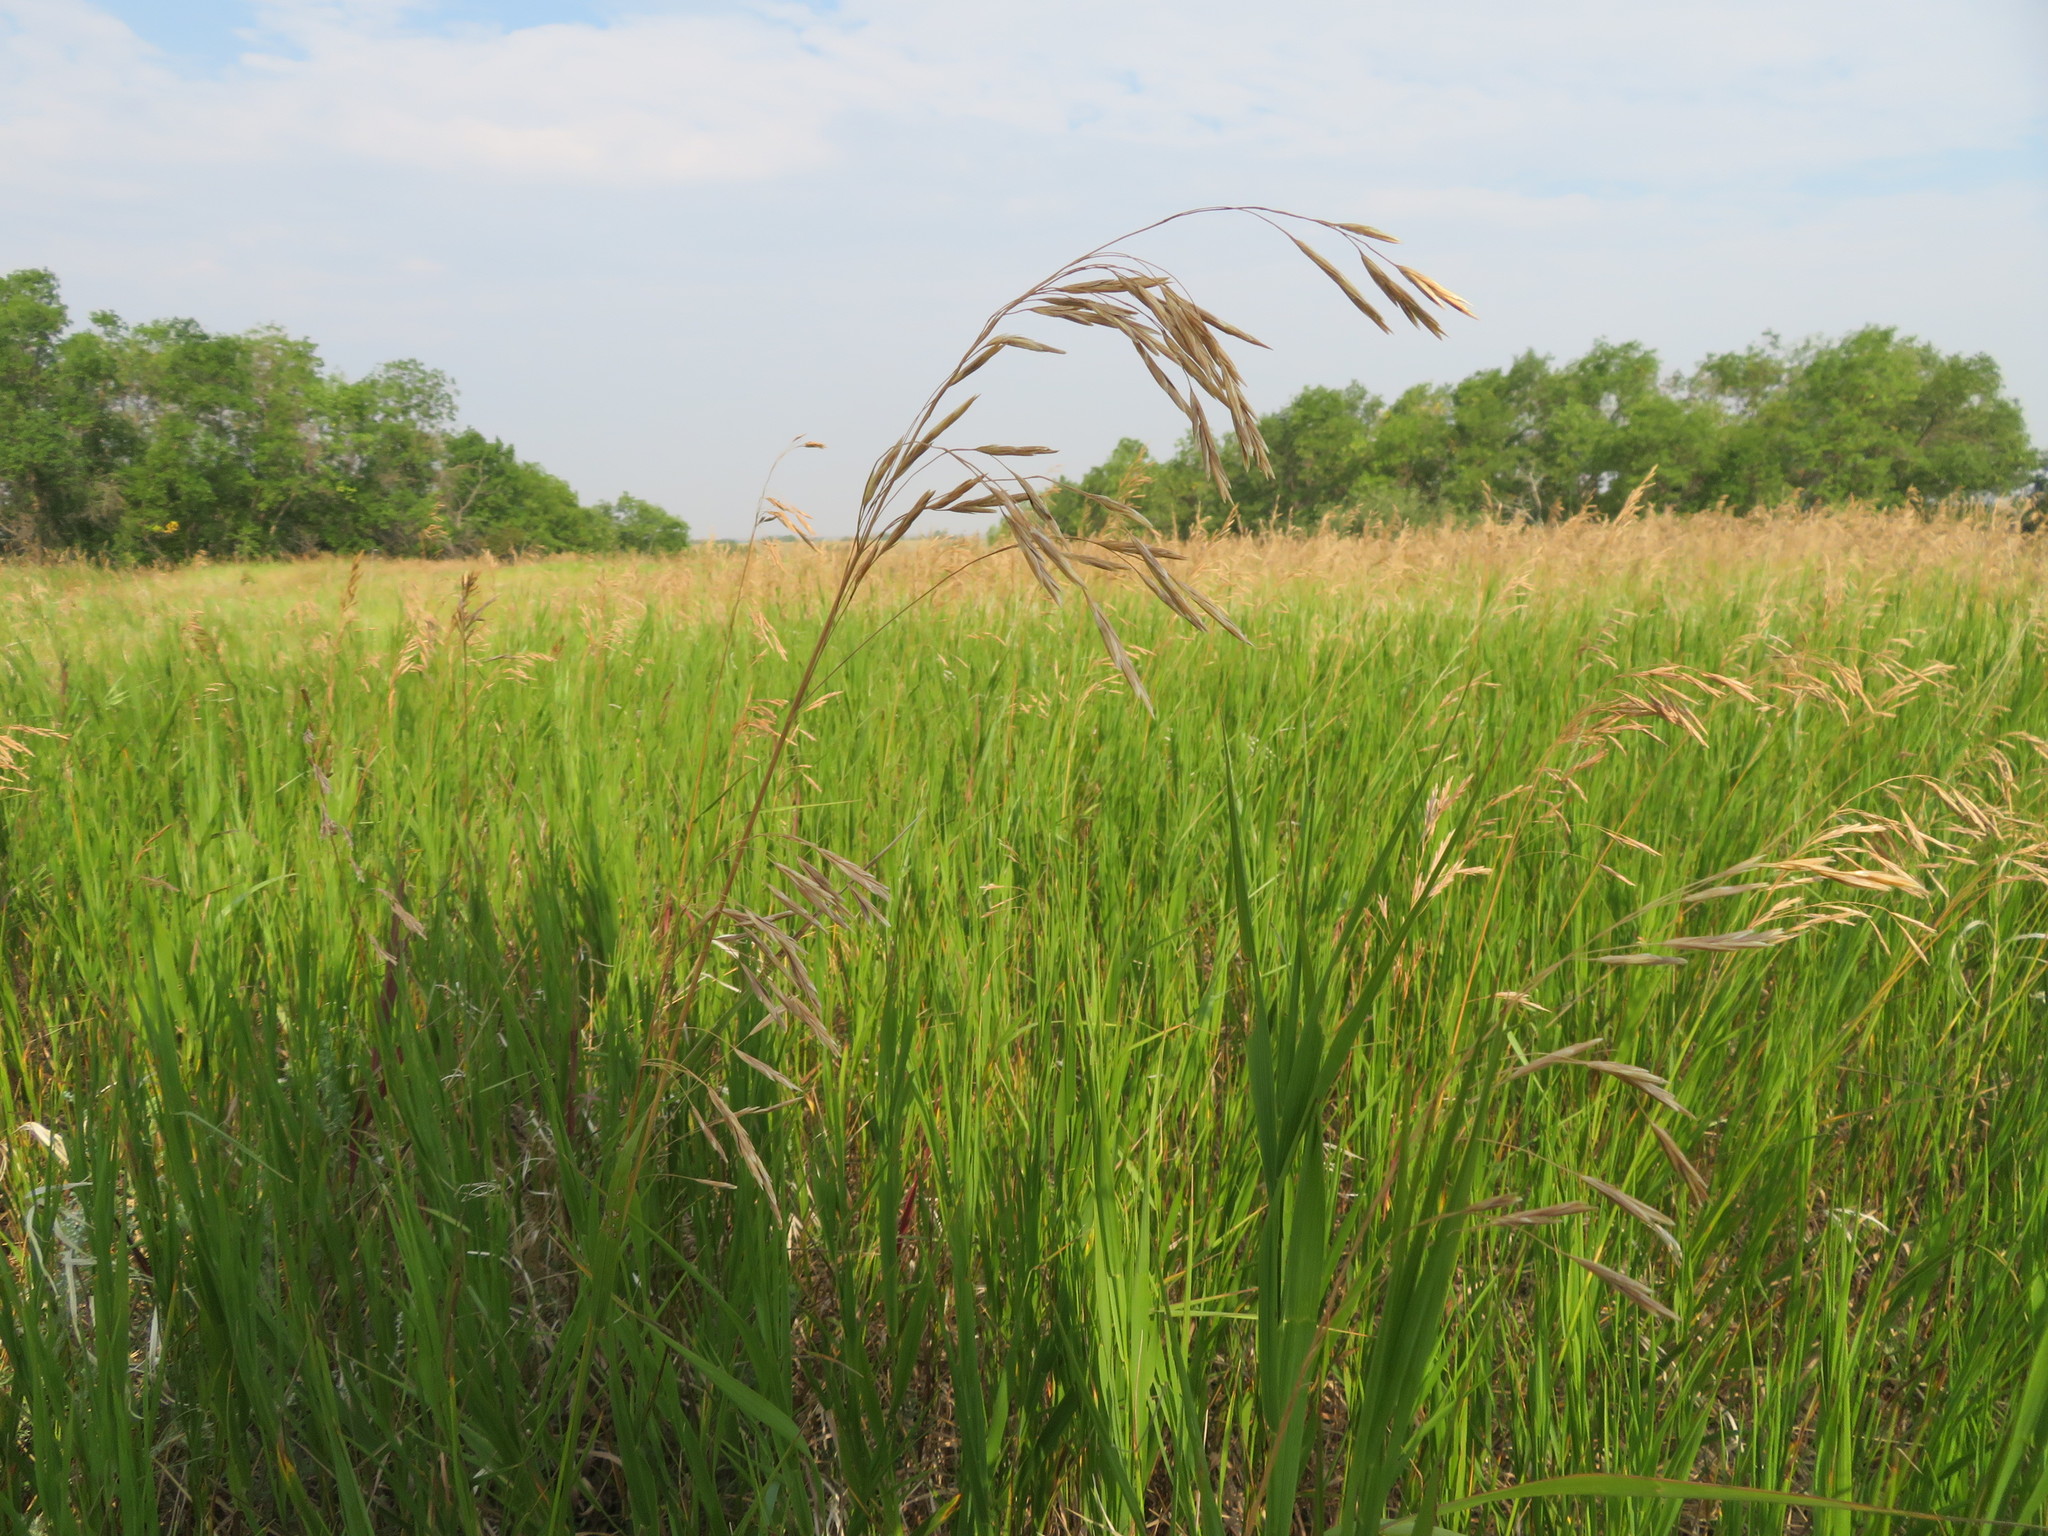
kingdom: Plantae
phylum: Tracheophyta
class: Liliopsida
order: Poales
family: Poaceae
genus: Bromus
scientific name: Bromus inermis
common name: Smooth brome
